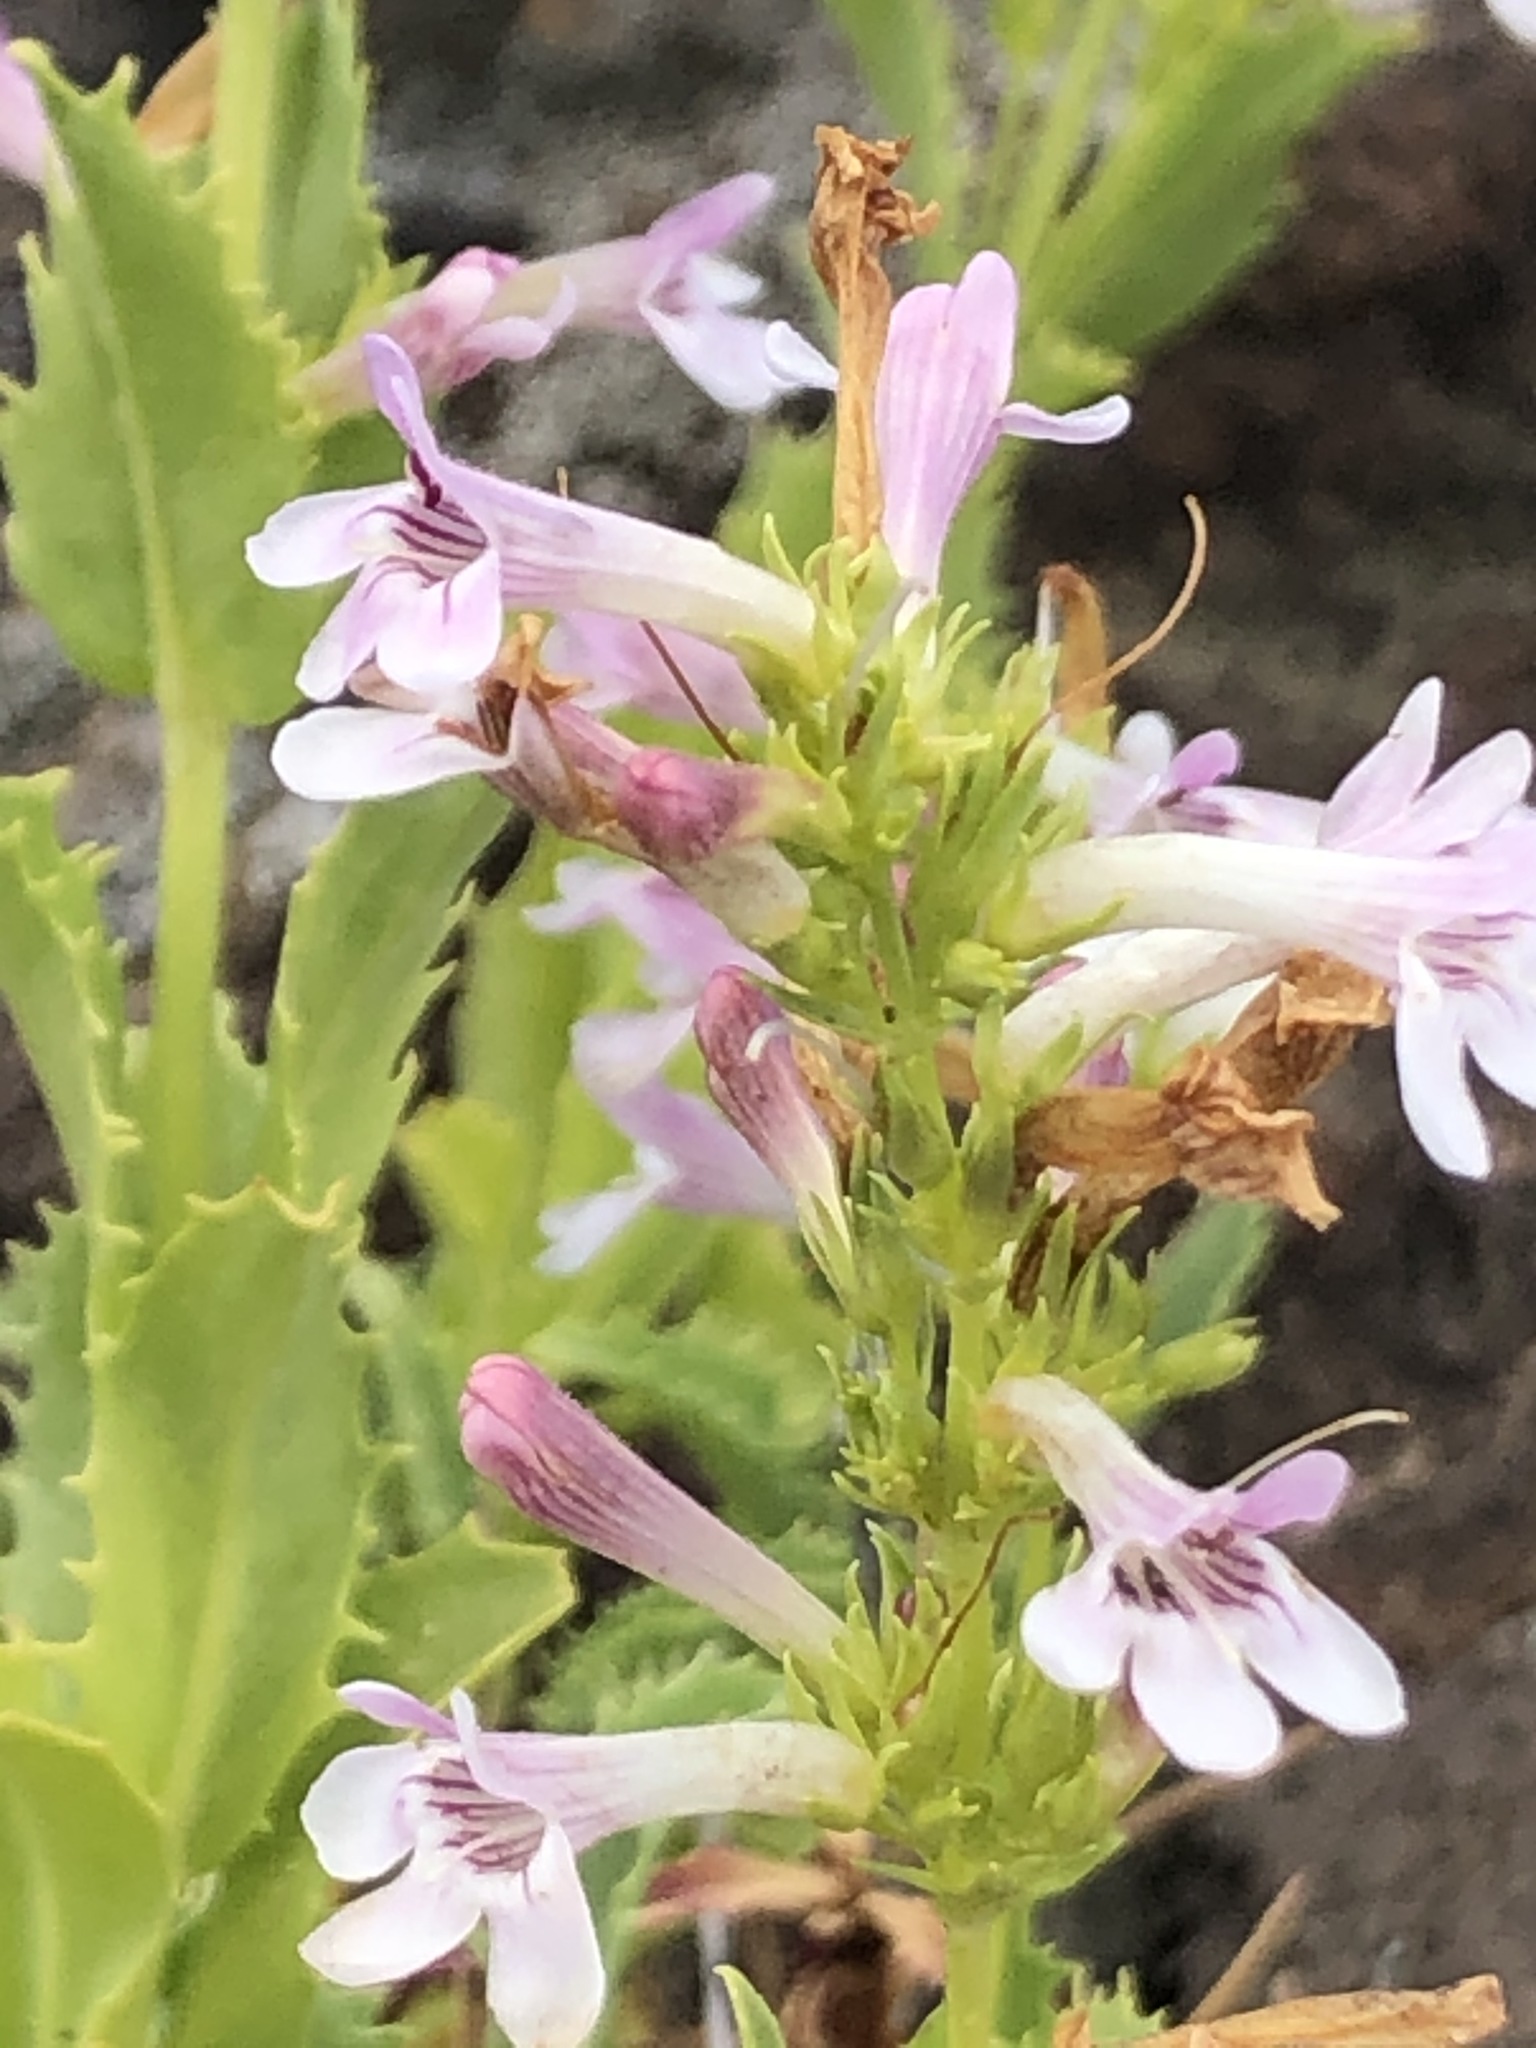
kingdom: Plantae
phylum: Tracheophyta
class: Magnoliopsida
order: Lamiales
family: Plantaginaceae
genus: Penstemon
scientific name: Penstemon deustus
